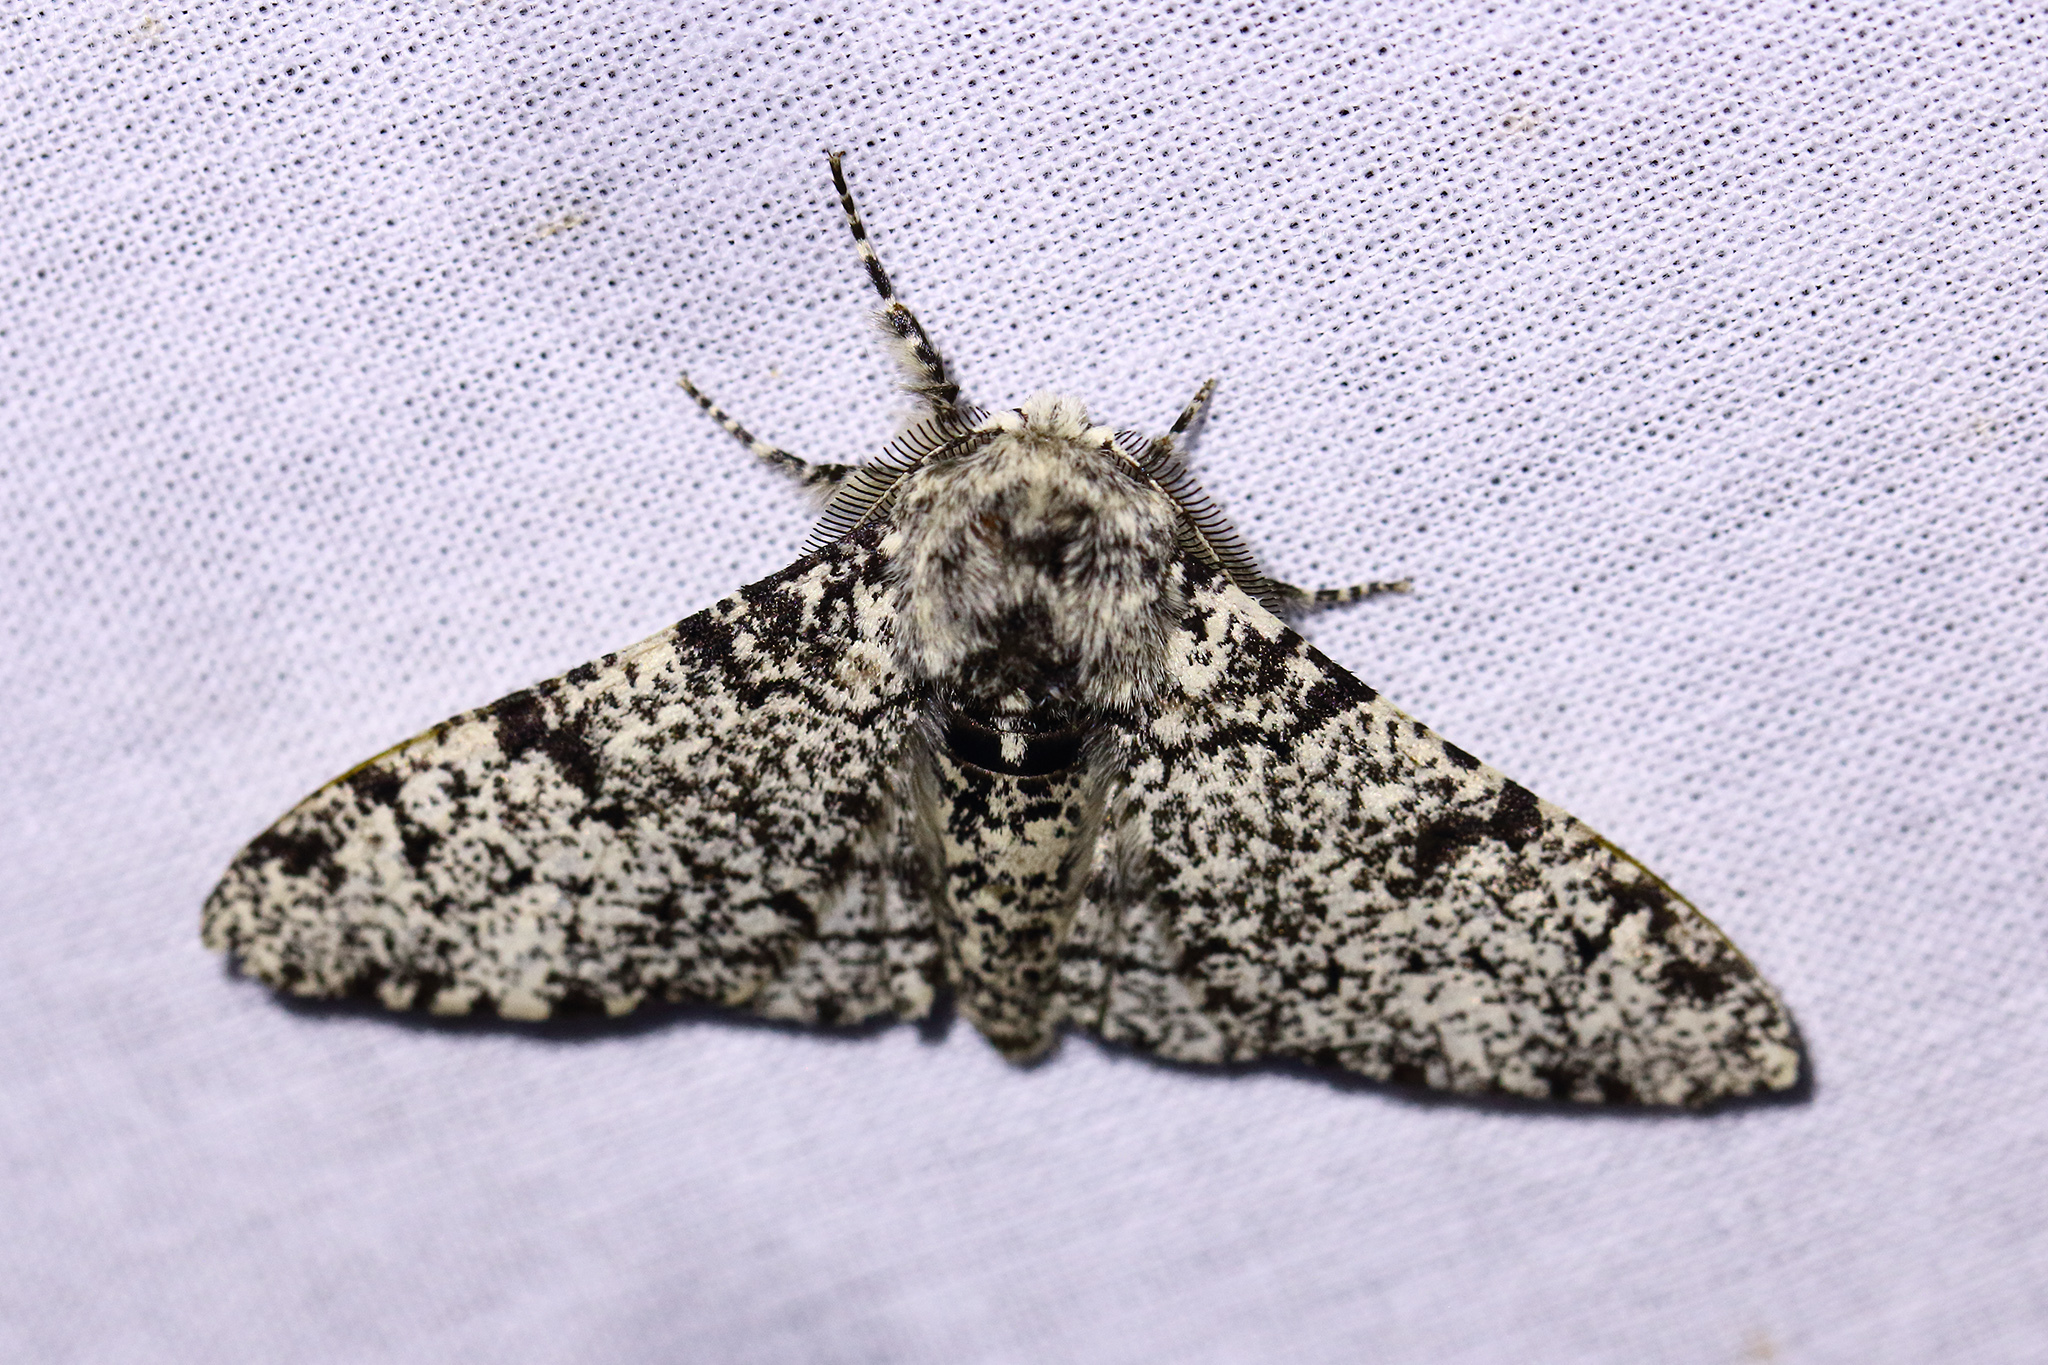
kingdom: Animalia
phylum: Arthropoda
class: Insecta
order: Lepidoptera
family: Geometridae
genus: Biston
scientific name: Biston betularia
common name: Peppered moth
